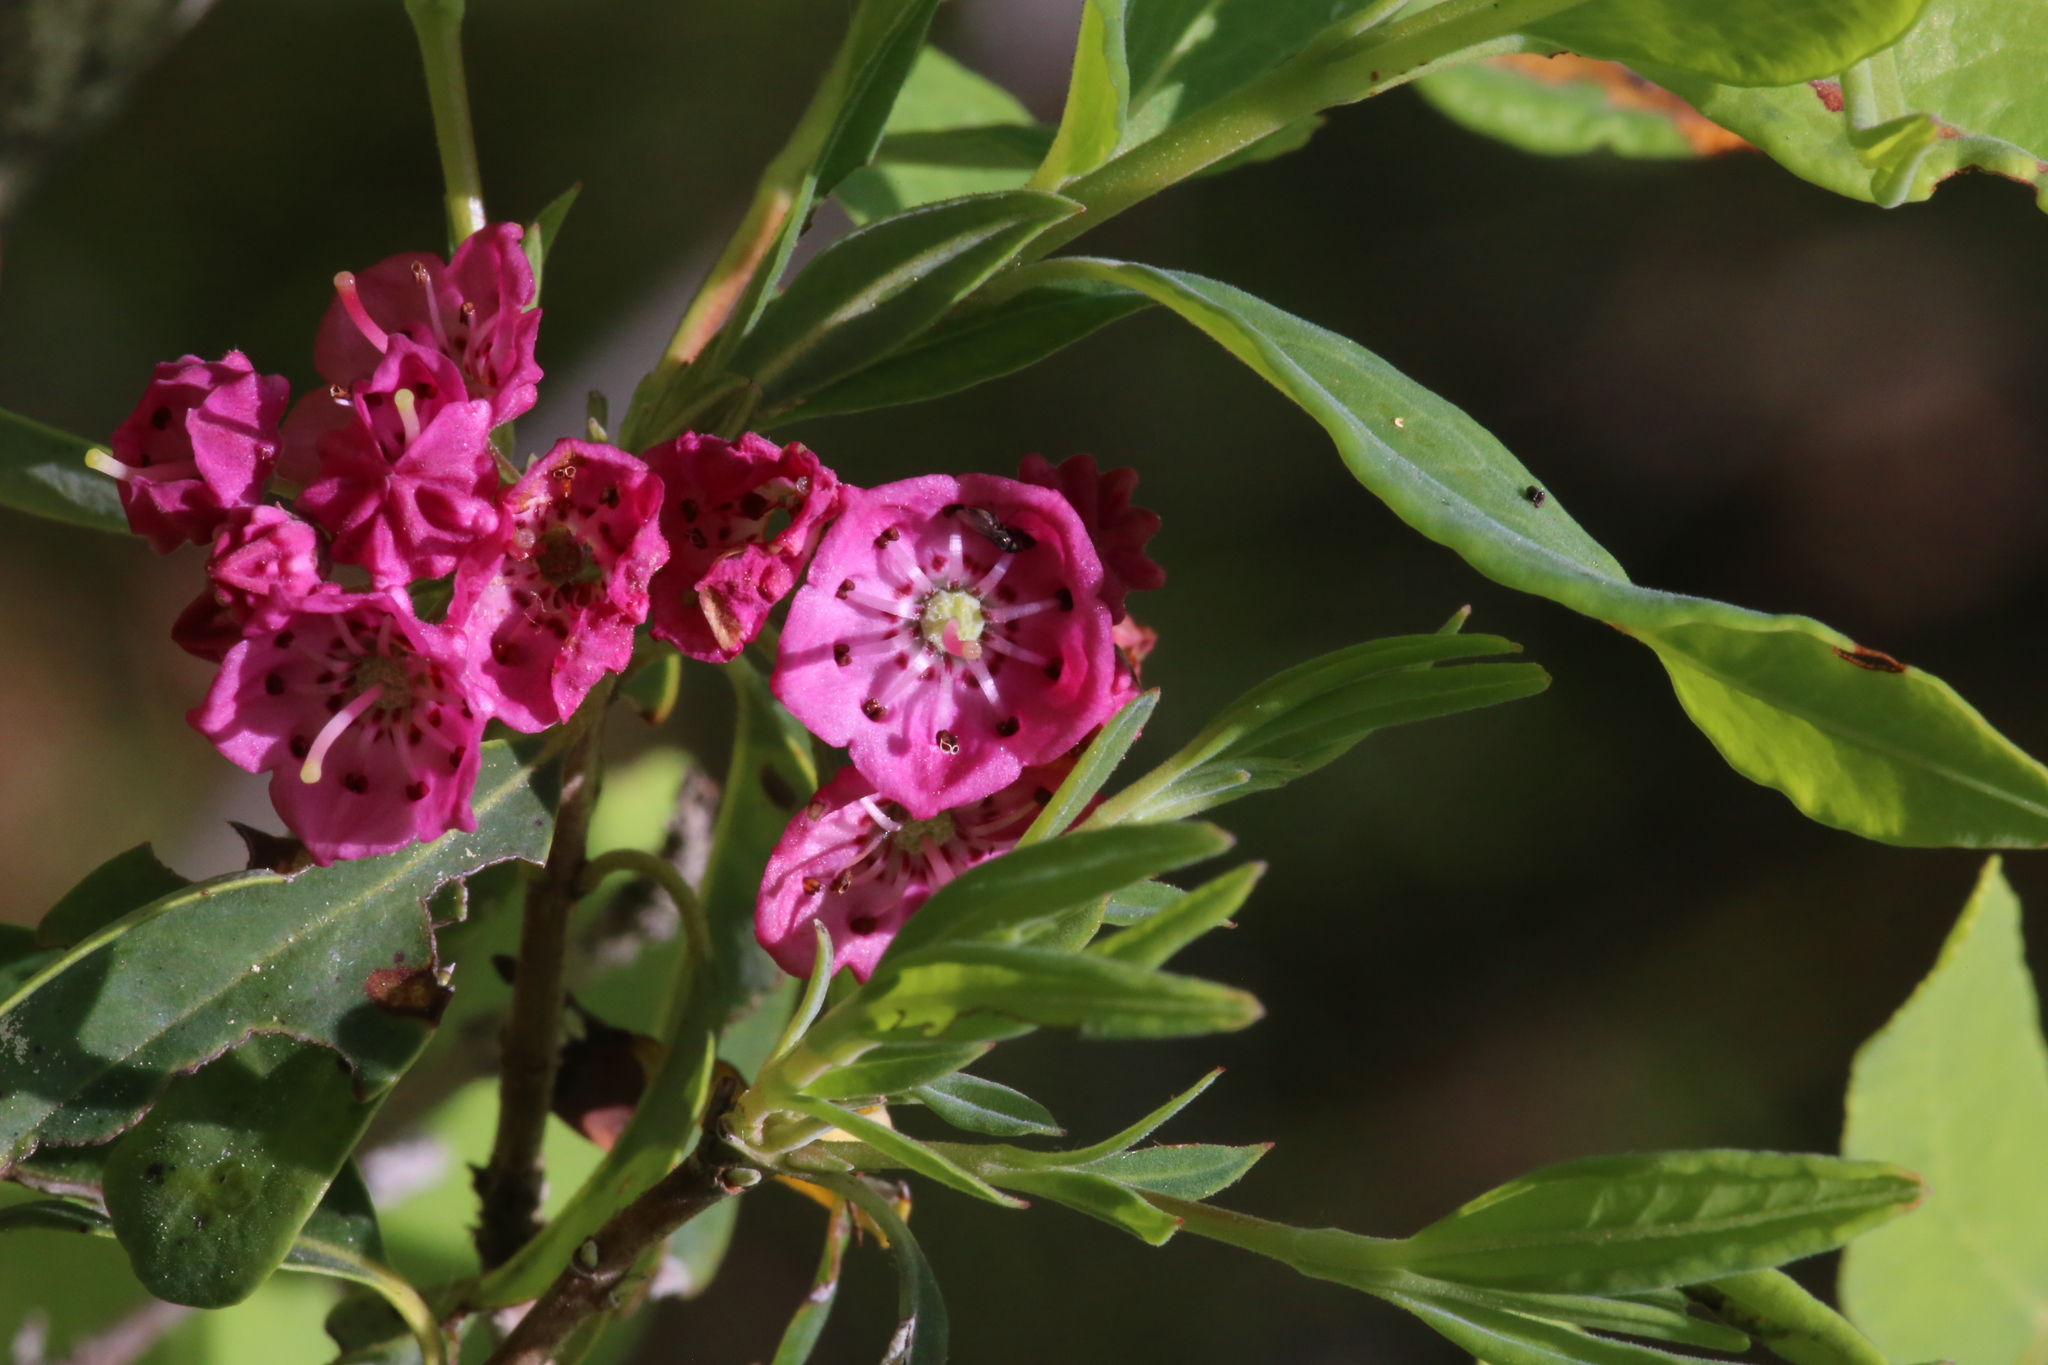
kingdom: Plantae
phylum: Tracheophyta
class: Magnoliopsida
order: Ericales
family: Ericaceae
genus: Kalmia
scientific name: Kalmia angustifolia
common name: Sheep-laurel
